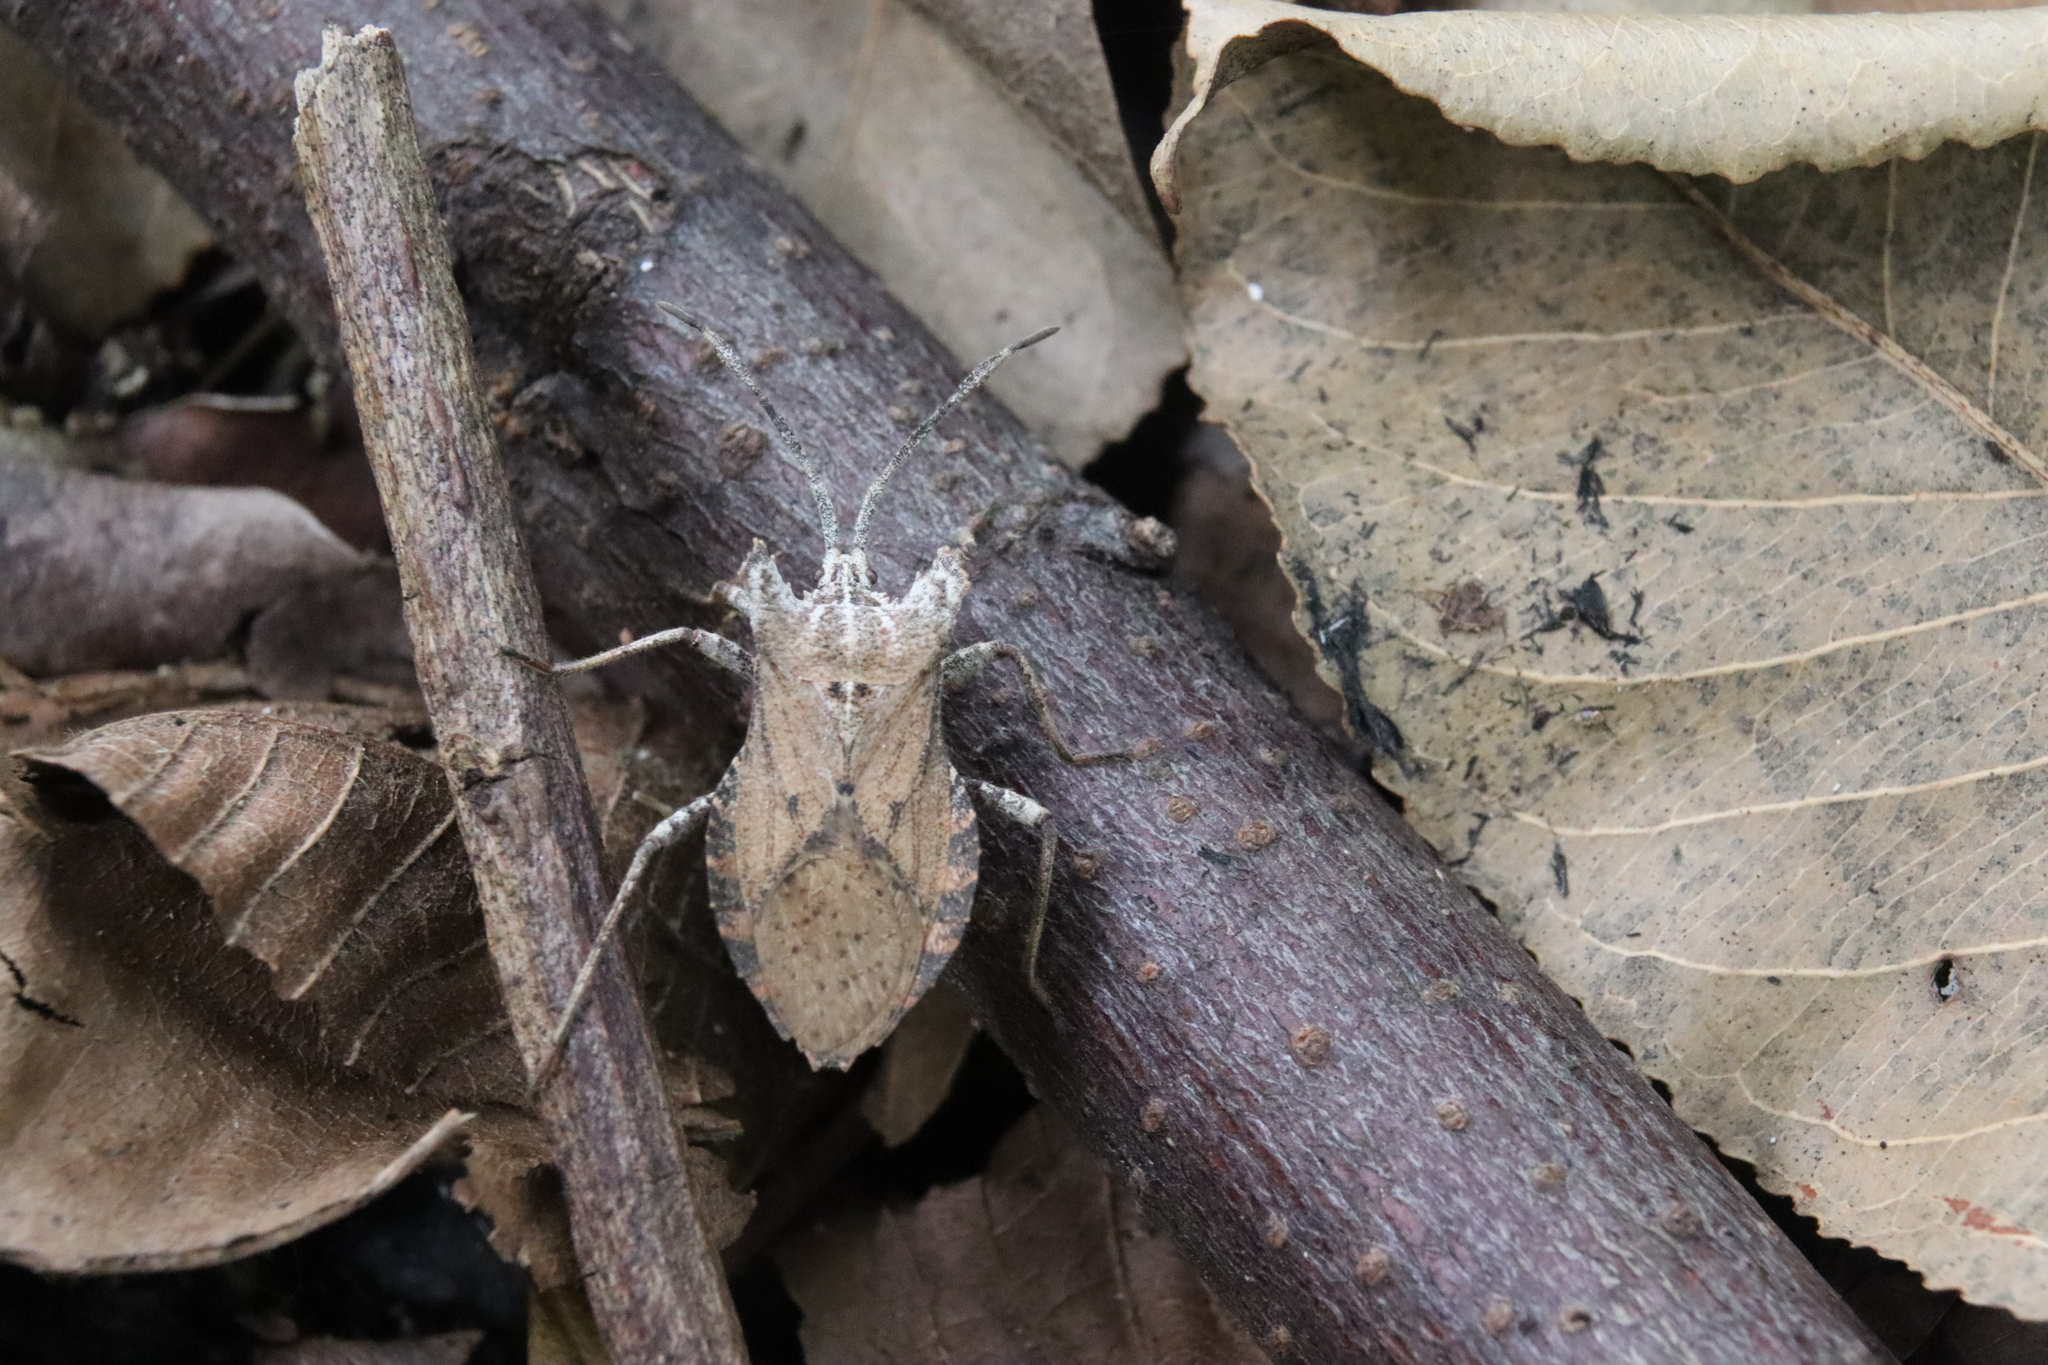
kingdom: Animalia
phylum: Arthropoda
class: Insecta
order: Hemiptera
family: Coreidae
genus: Acanonicus
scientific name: Acanonicus laticornis
